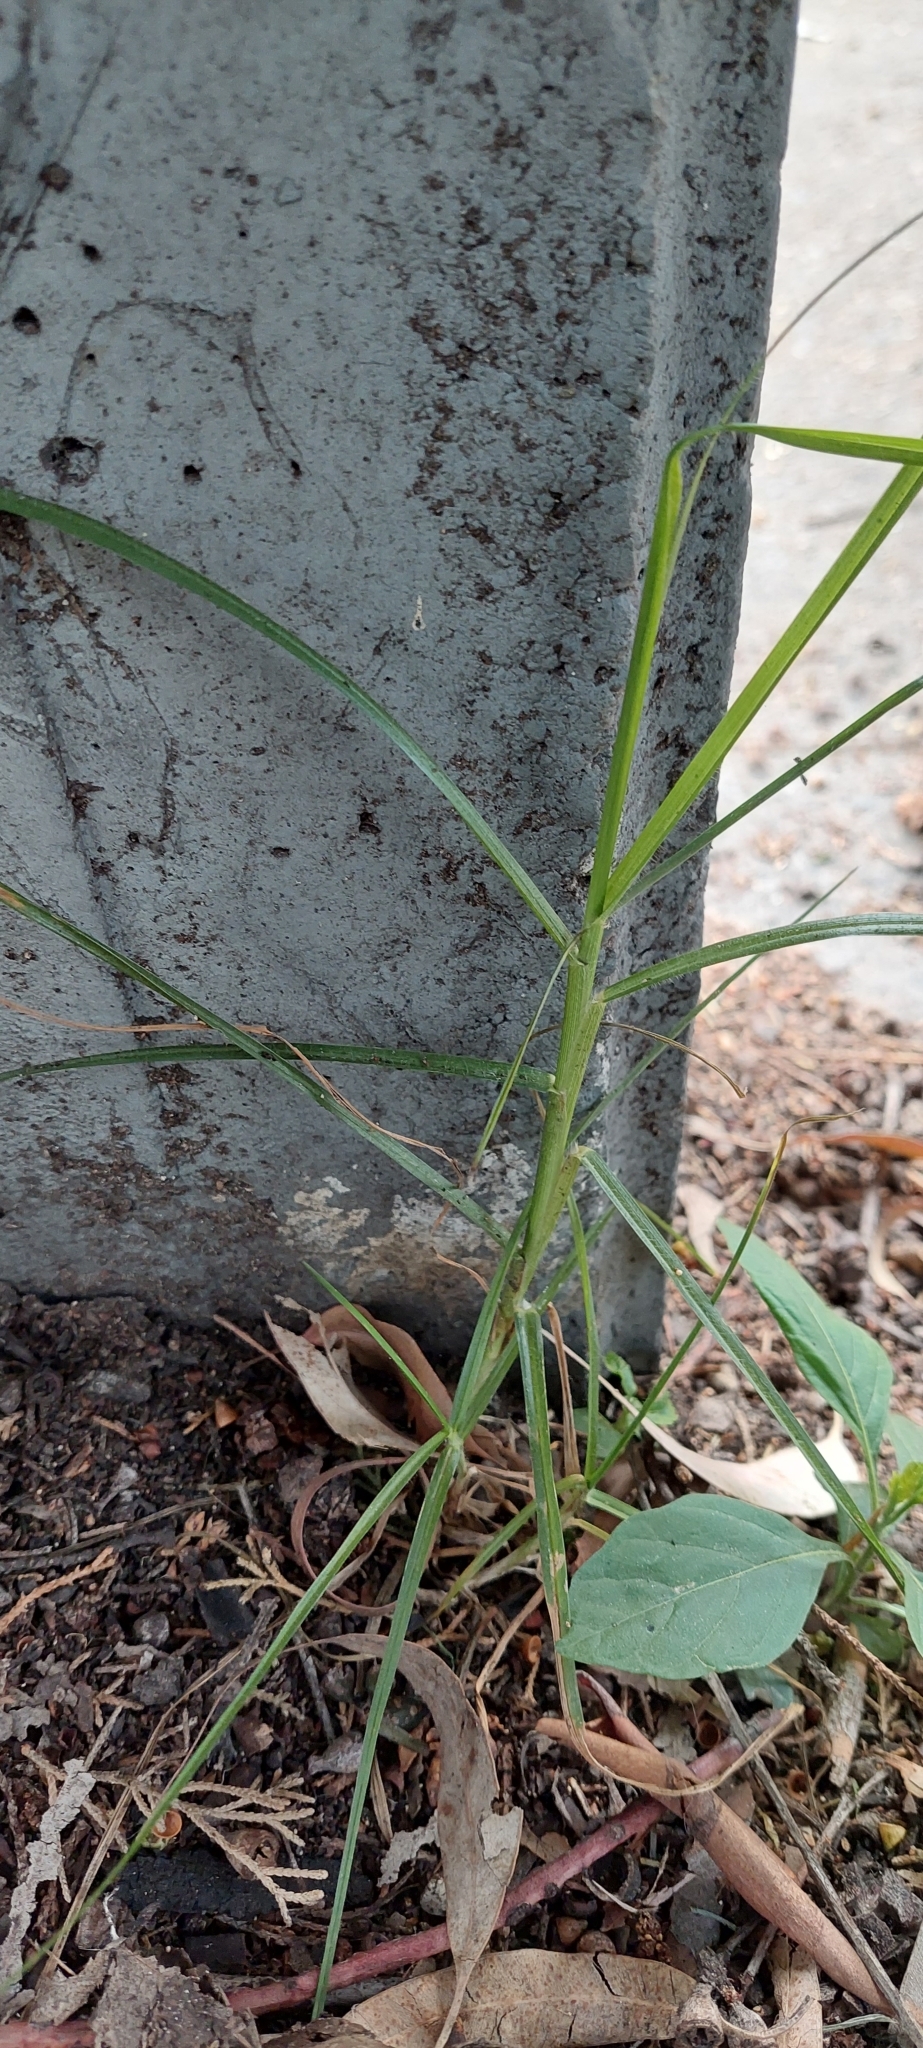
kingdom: Plantae
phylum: Tracheophyta
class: Liliopsida
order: Poales
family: Poaceae
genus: Cenchrus
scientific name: Cenchrus clandestinus
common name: Kikuyugrass
